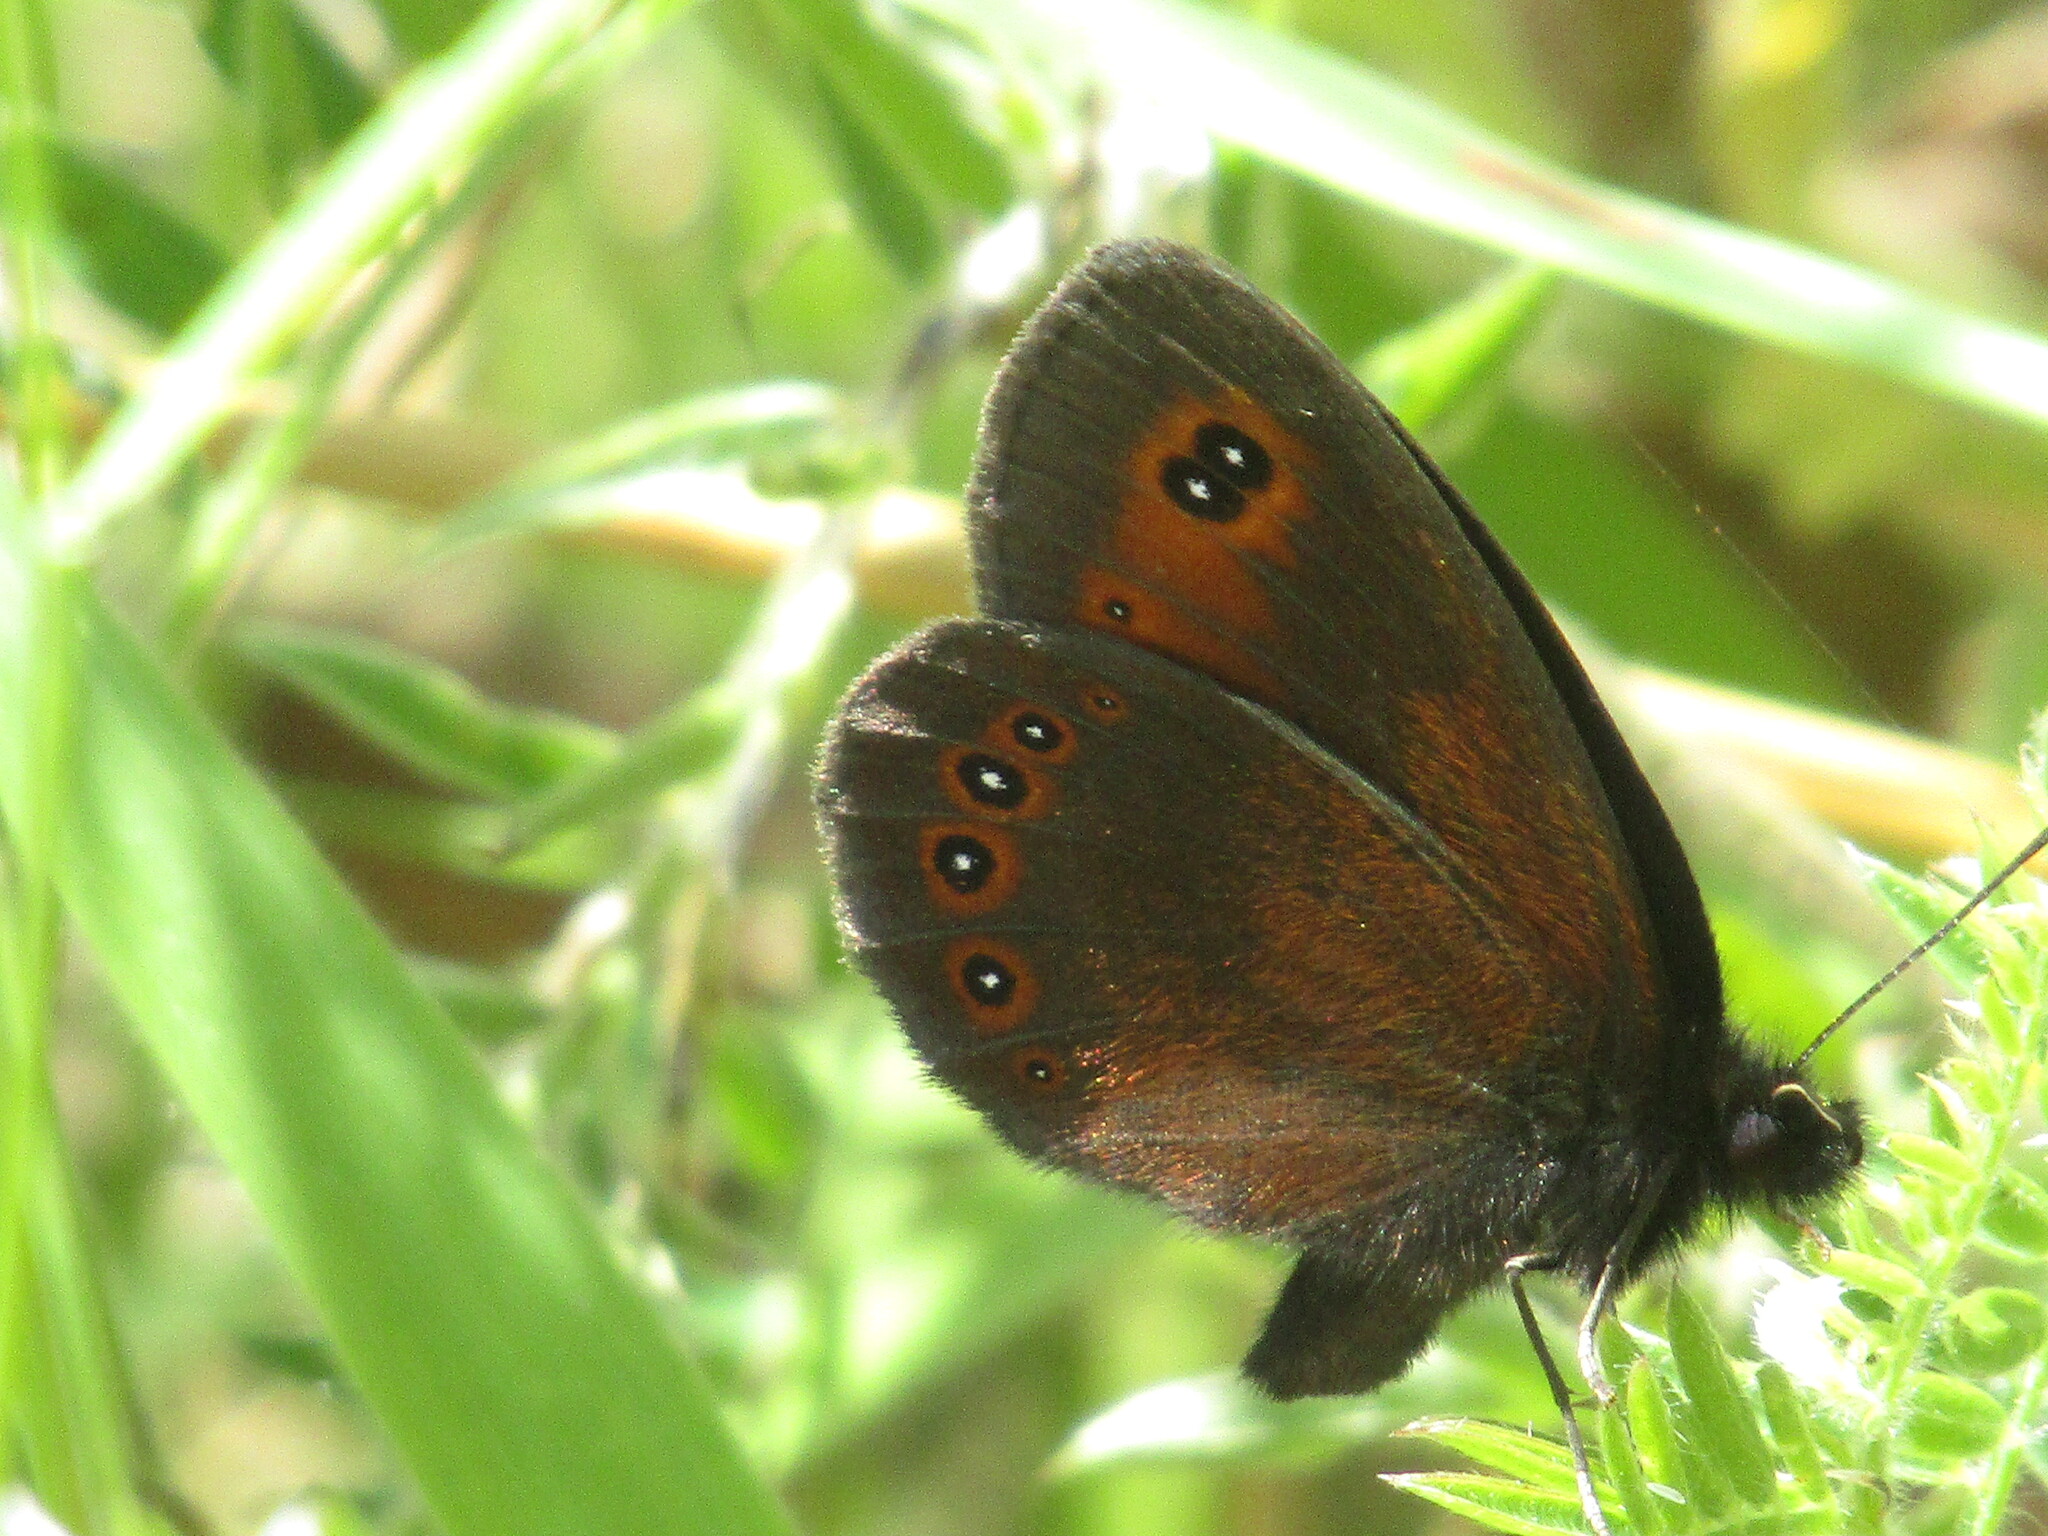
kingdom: Animalia
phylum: Arthropoda
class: Insecta
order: Lepidoptera
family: Nymphalidae
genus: Erebia
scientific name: Erebia oeme
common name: Bright-eyed ringlet
